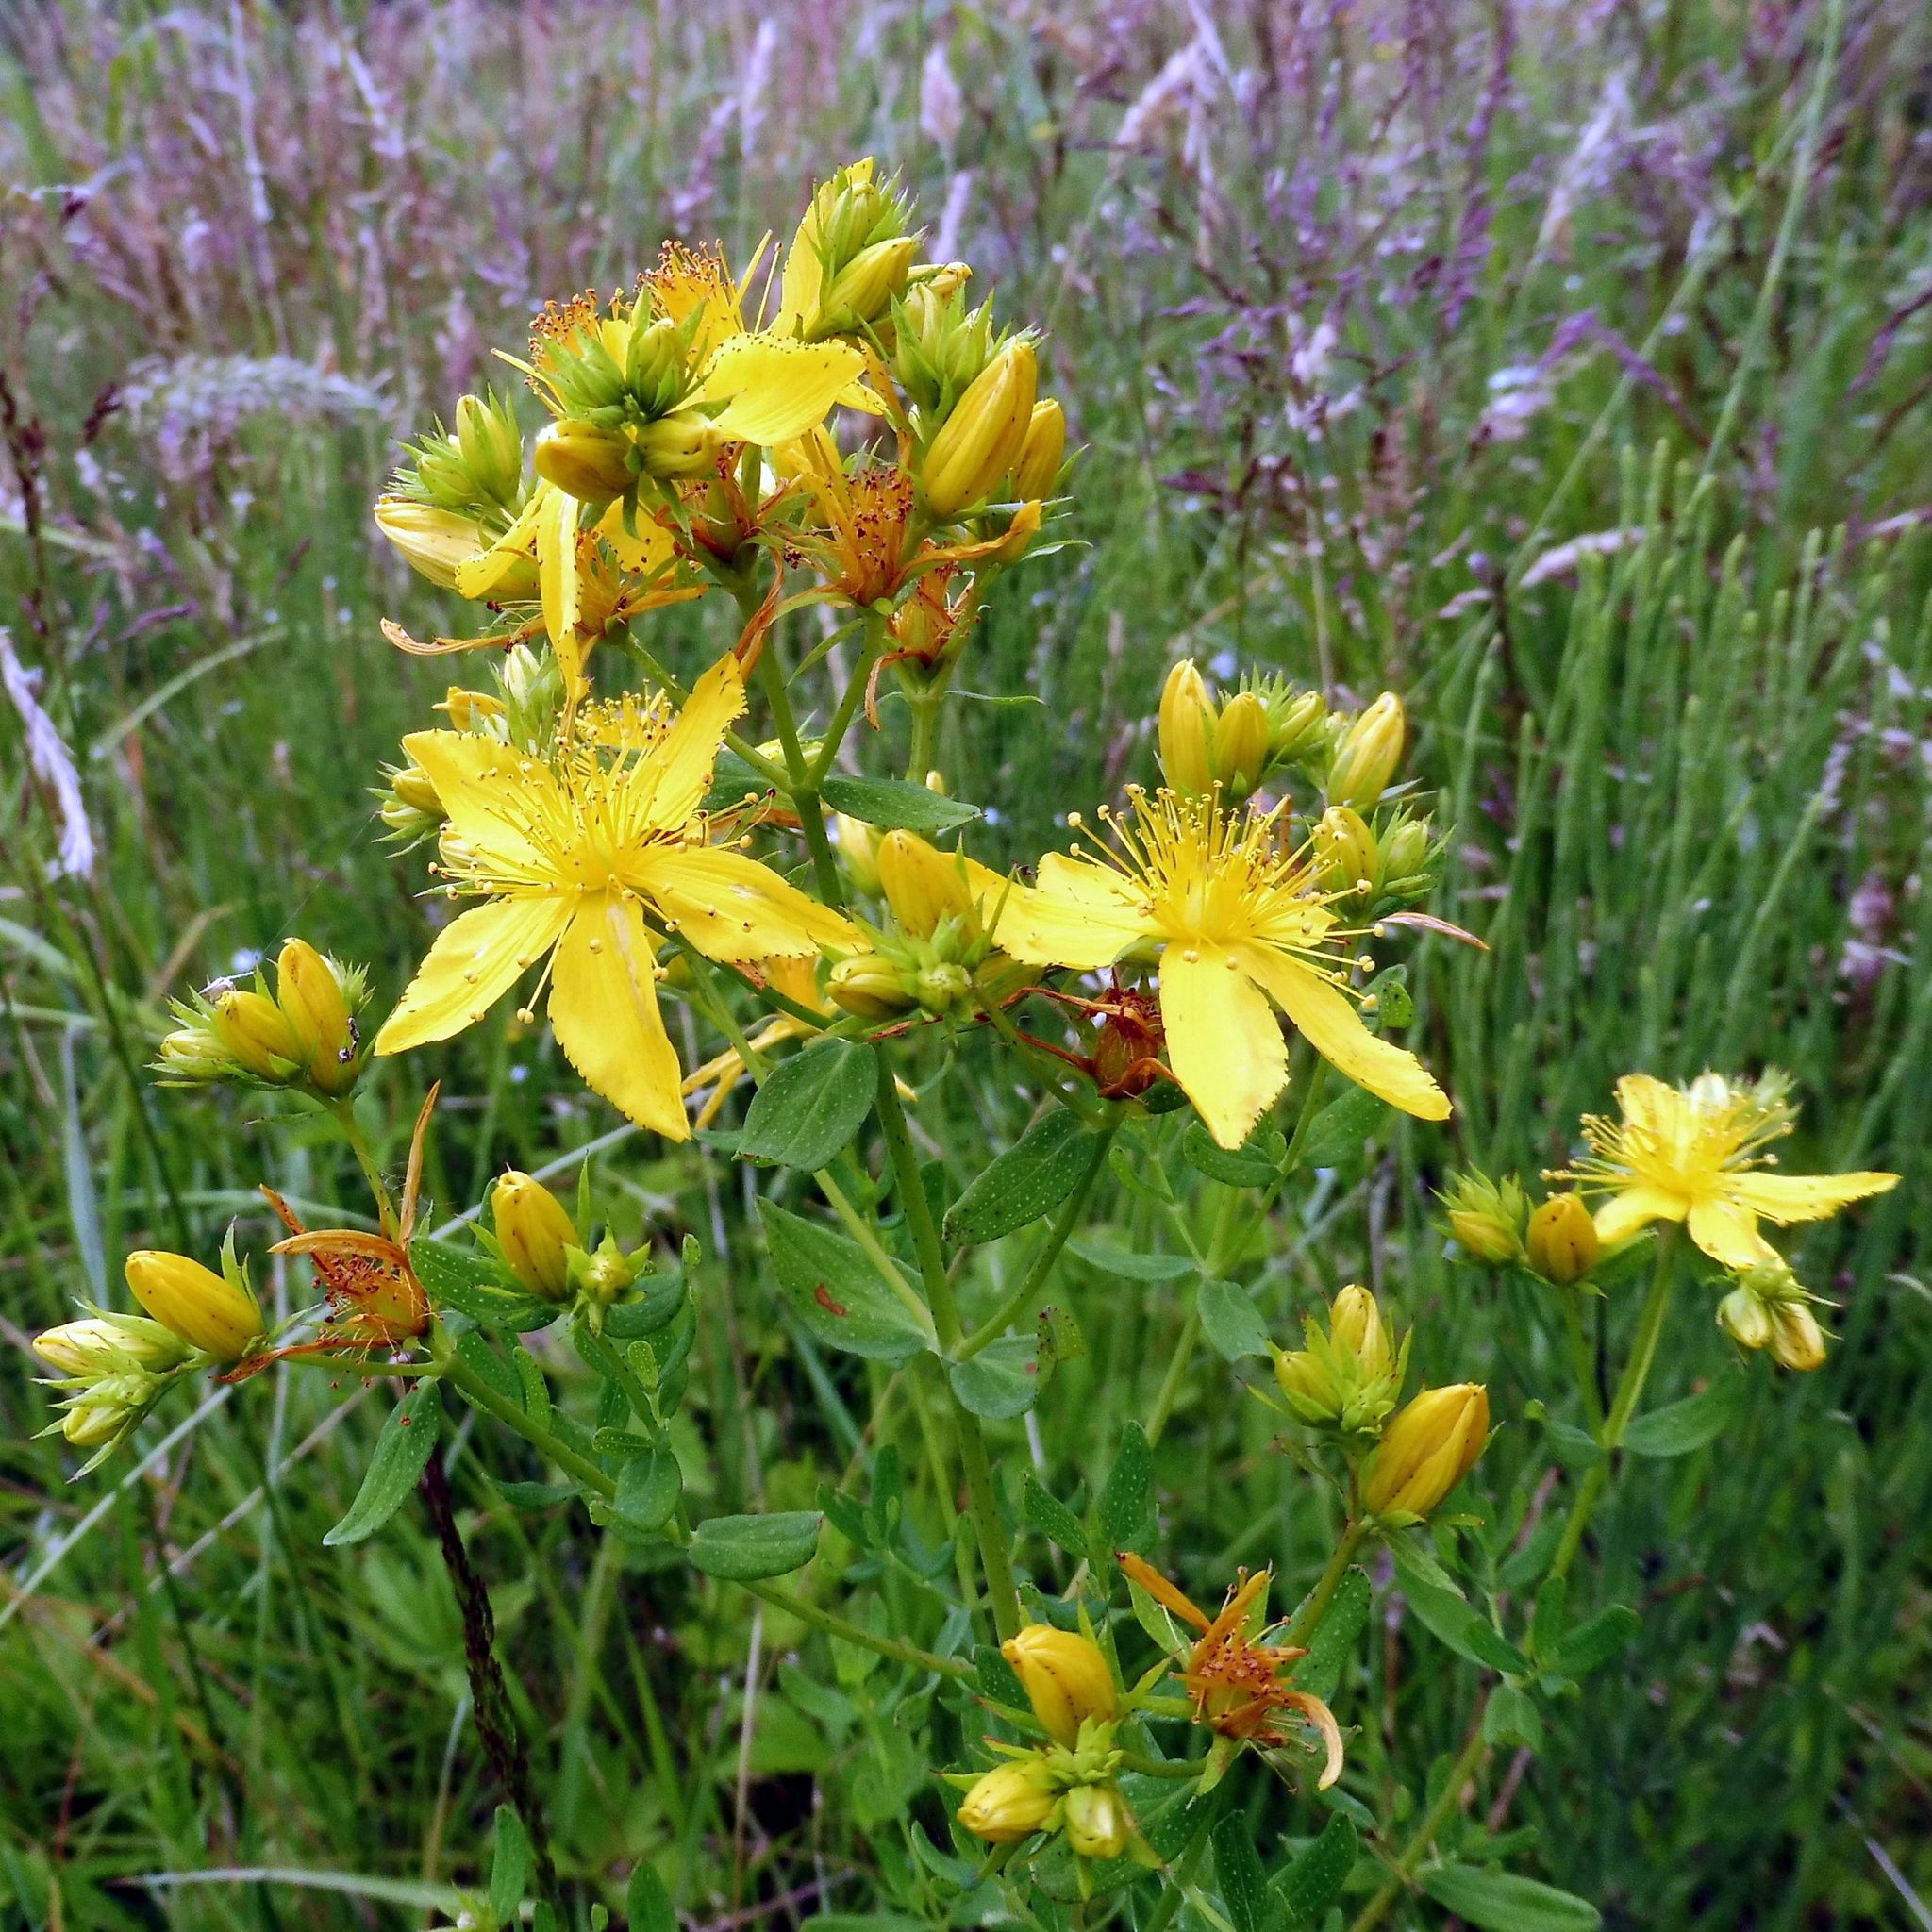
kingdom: Plantae
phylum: Tracheophyta
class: Magnoliopsida
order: Malpighiales
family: Hypericaceae
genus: Hypericum
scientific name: Hypericum perforatum
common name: Common st. johnswort
